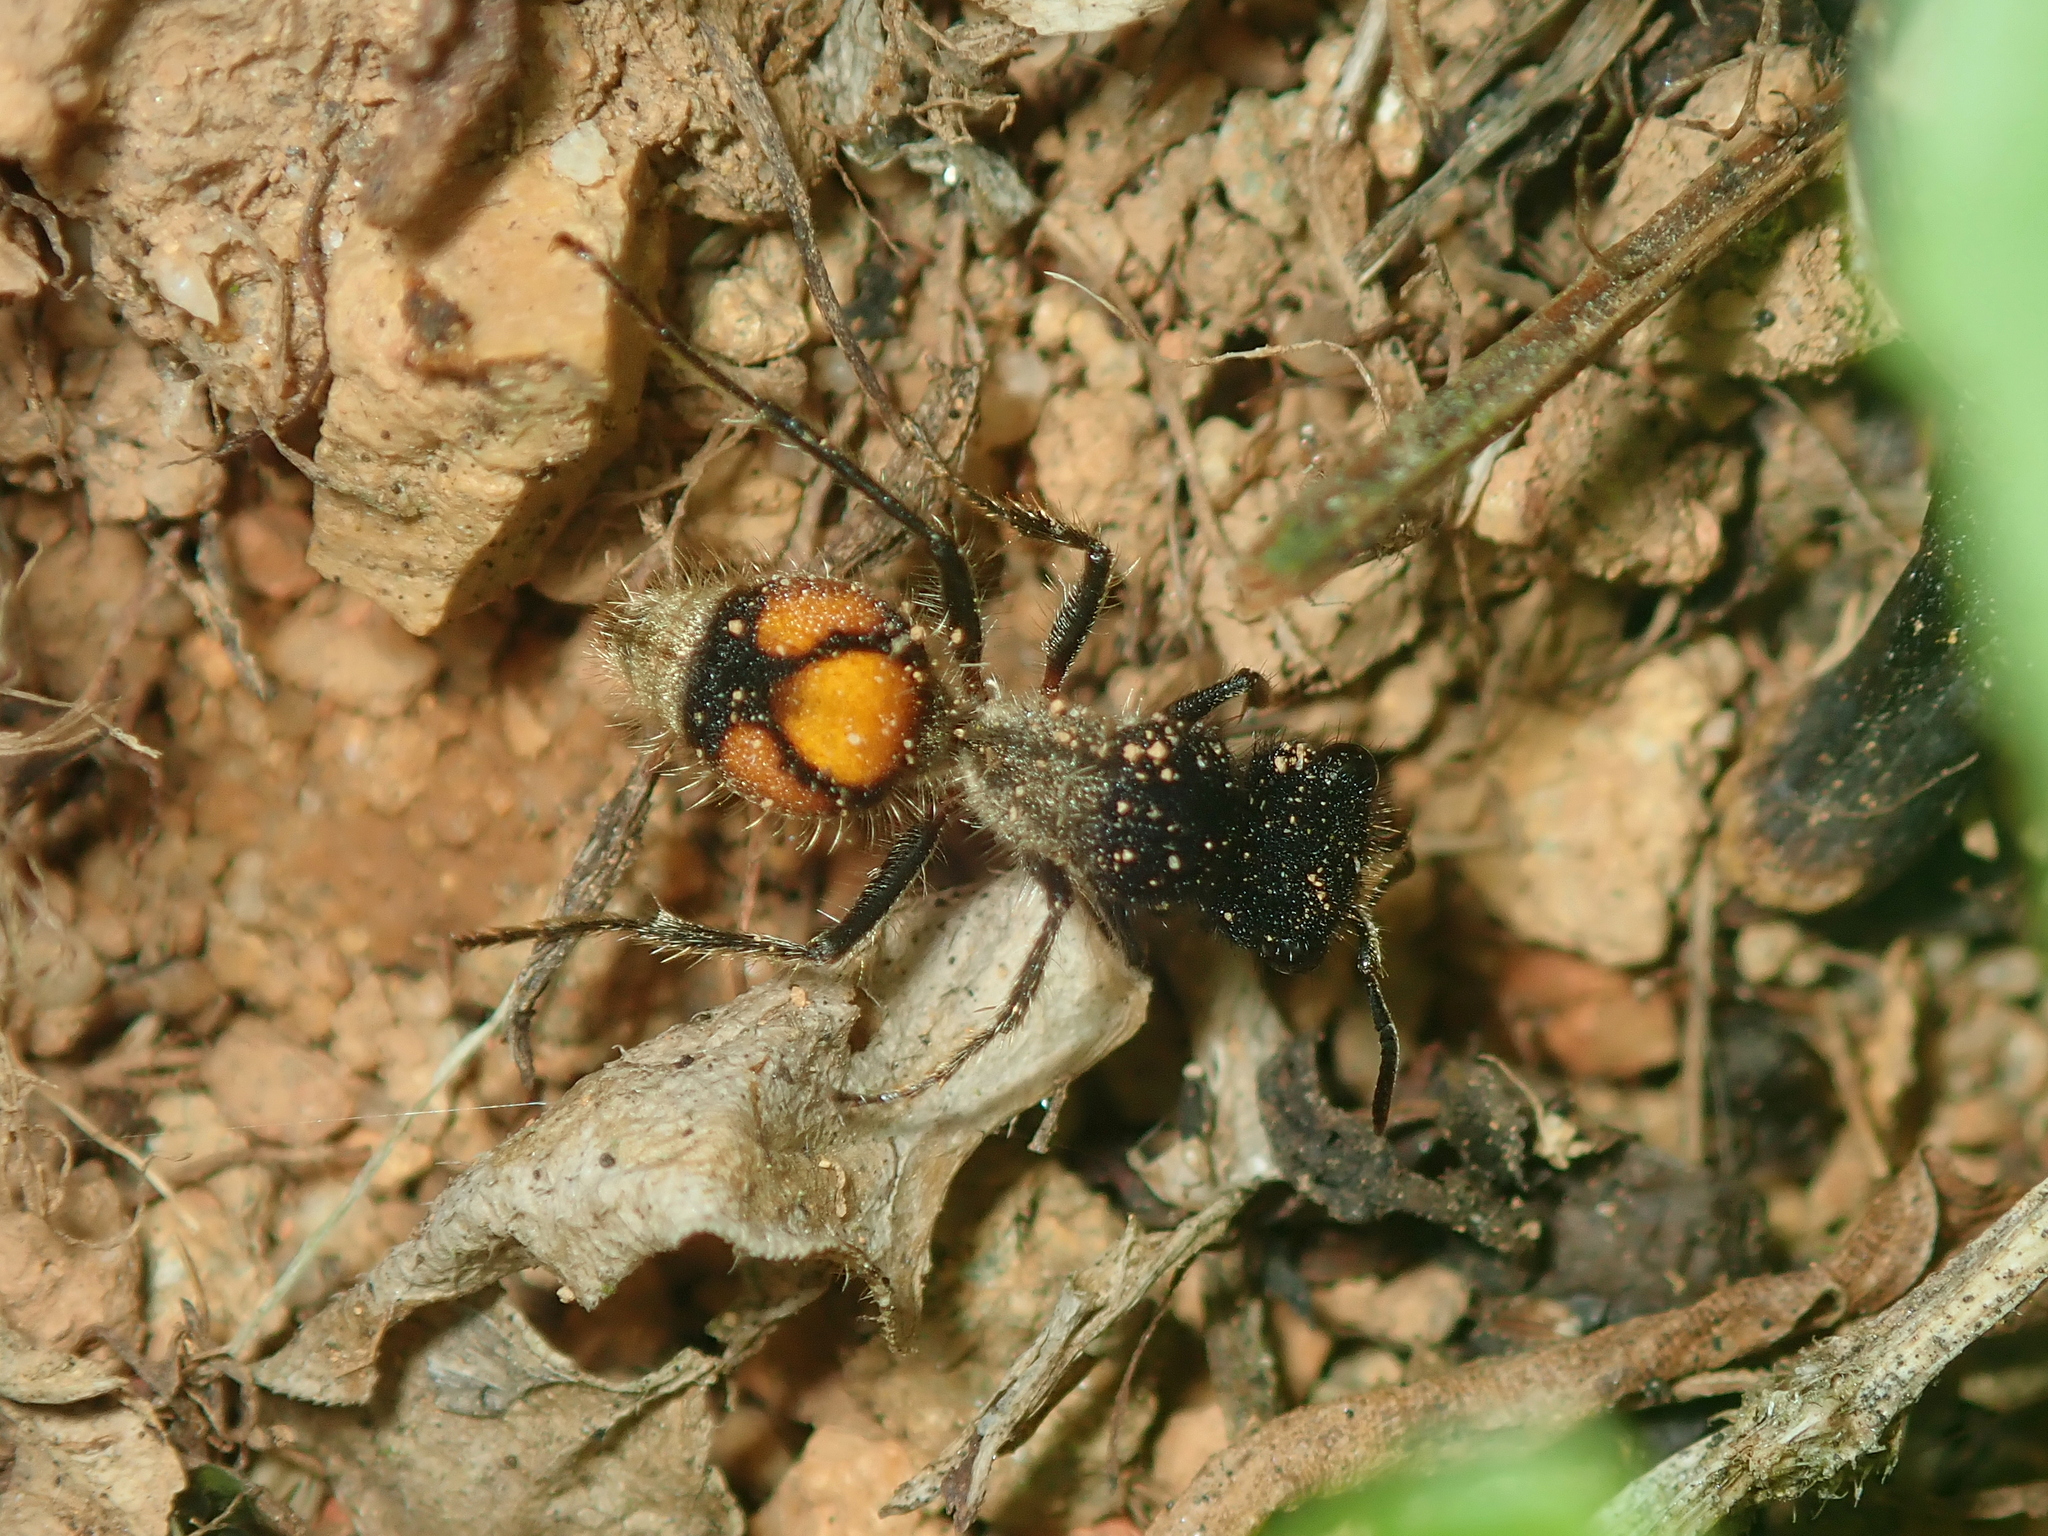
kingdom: Animalia
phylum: Arthropoda
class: Insecta
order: Hymenoptera
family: Mutillidae
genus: Lophomutilla
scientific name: Lophomutilla prionophora
